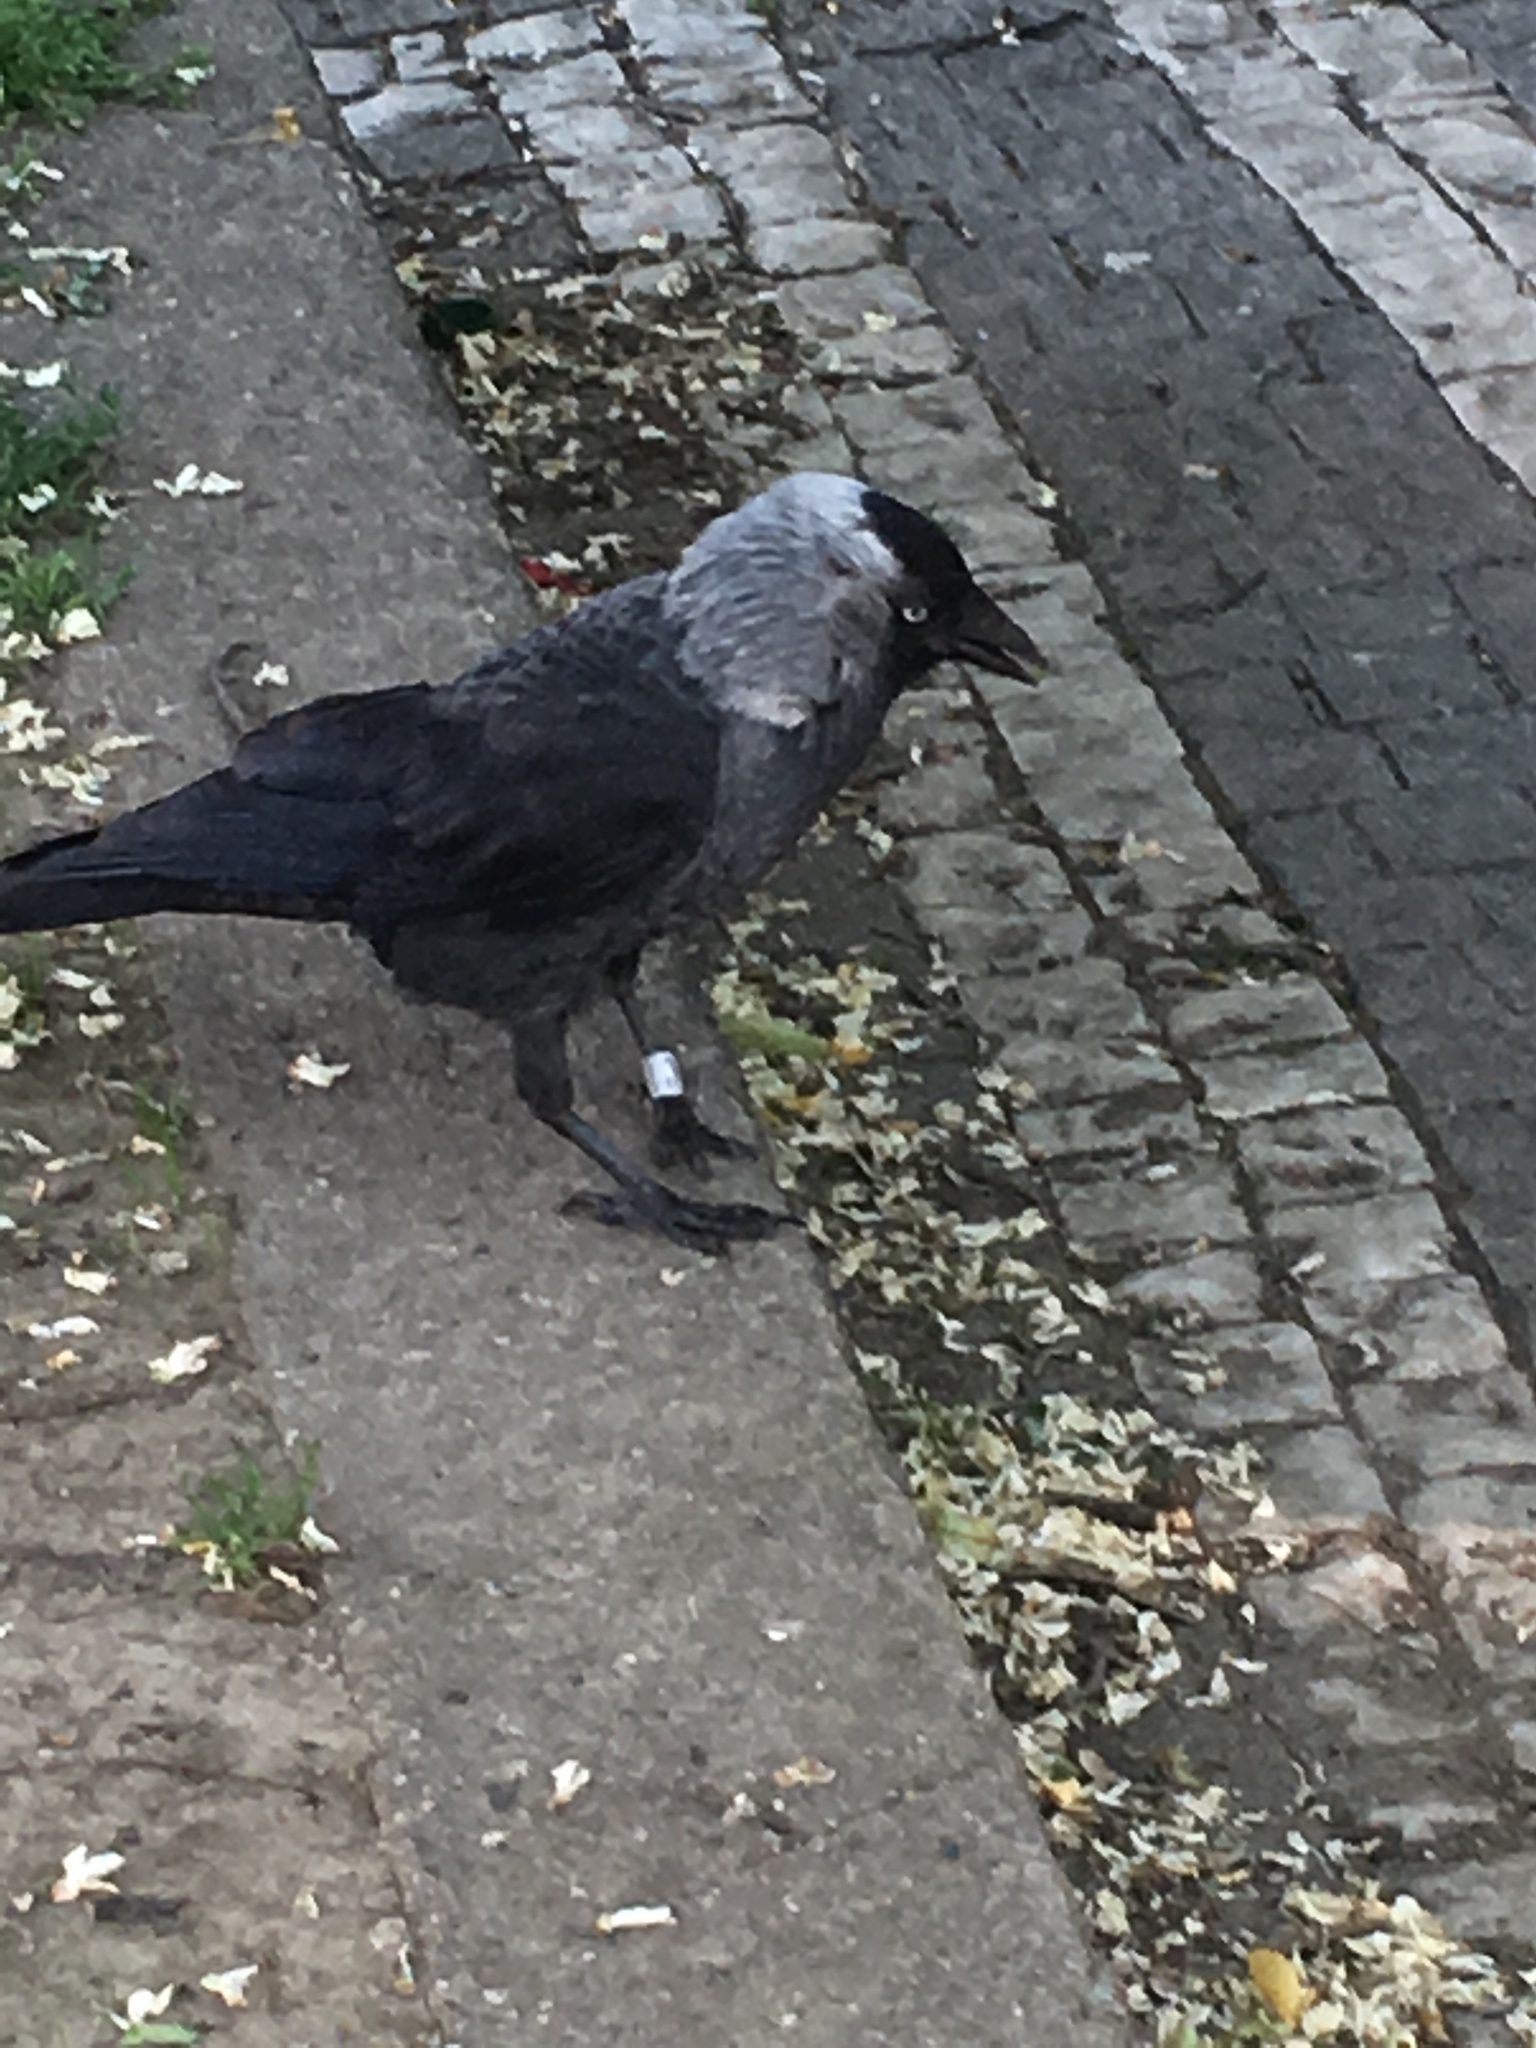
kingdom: Animalia
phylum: Chordata
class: Aves
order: Passeriformes
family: Corvidae
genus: Coloeus
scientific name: Coloeus monedula
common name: Western jackdaw
